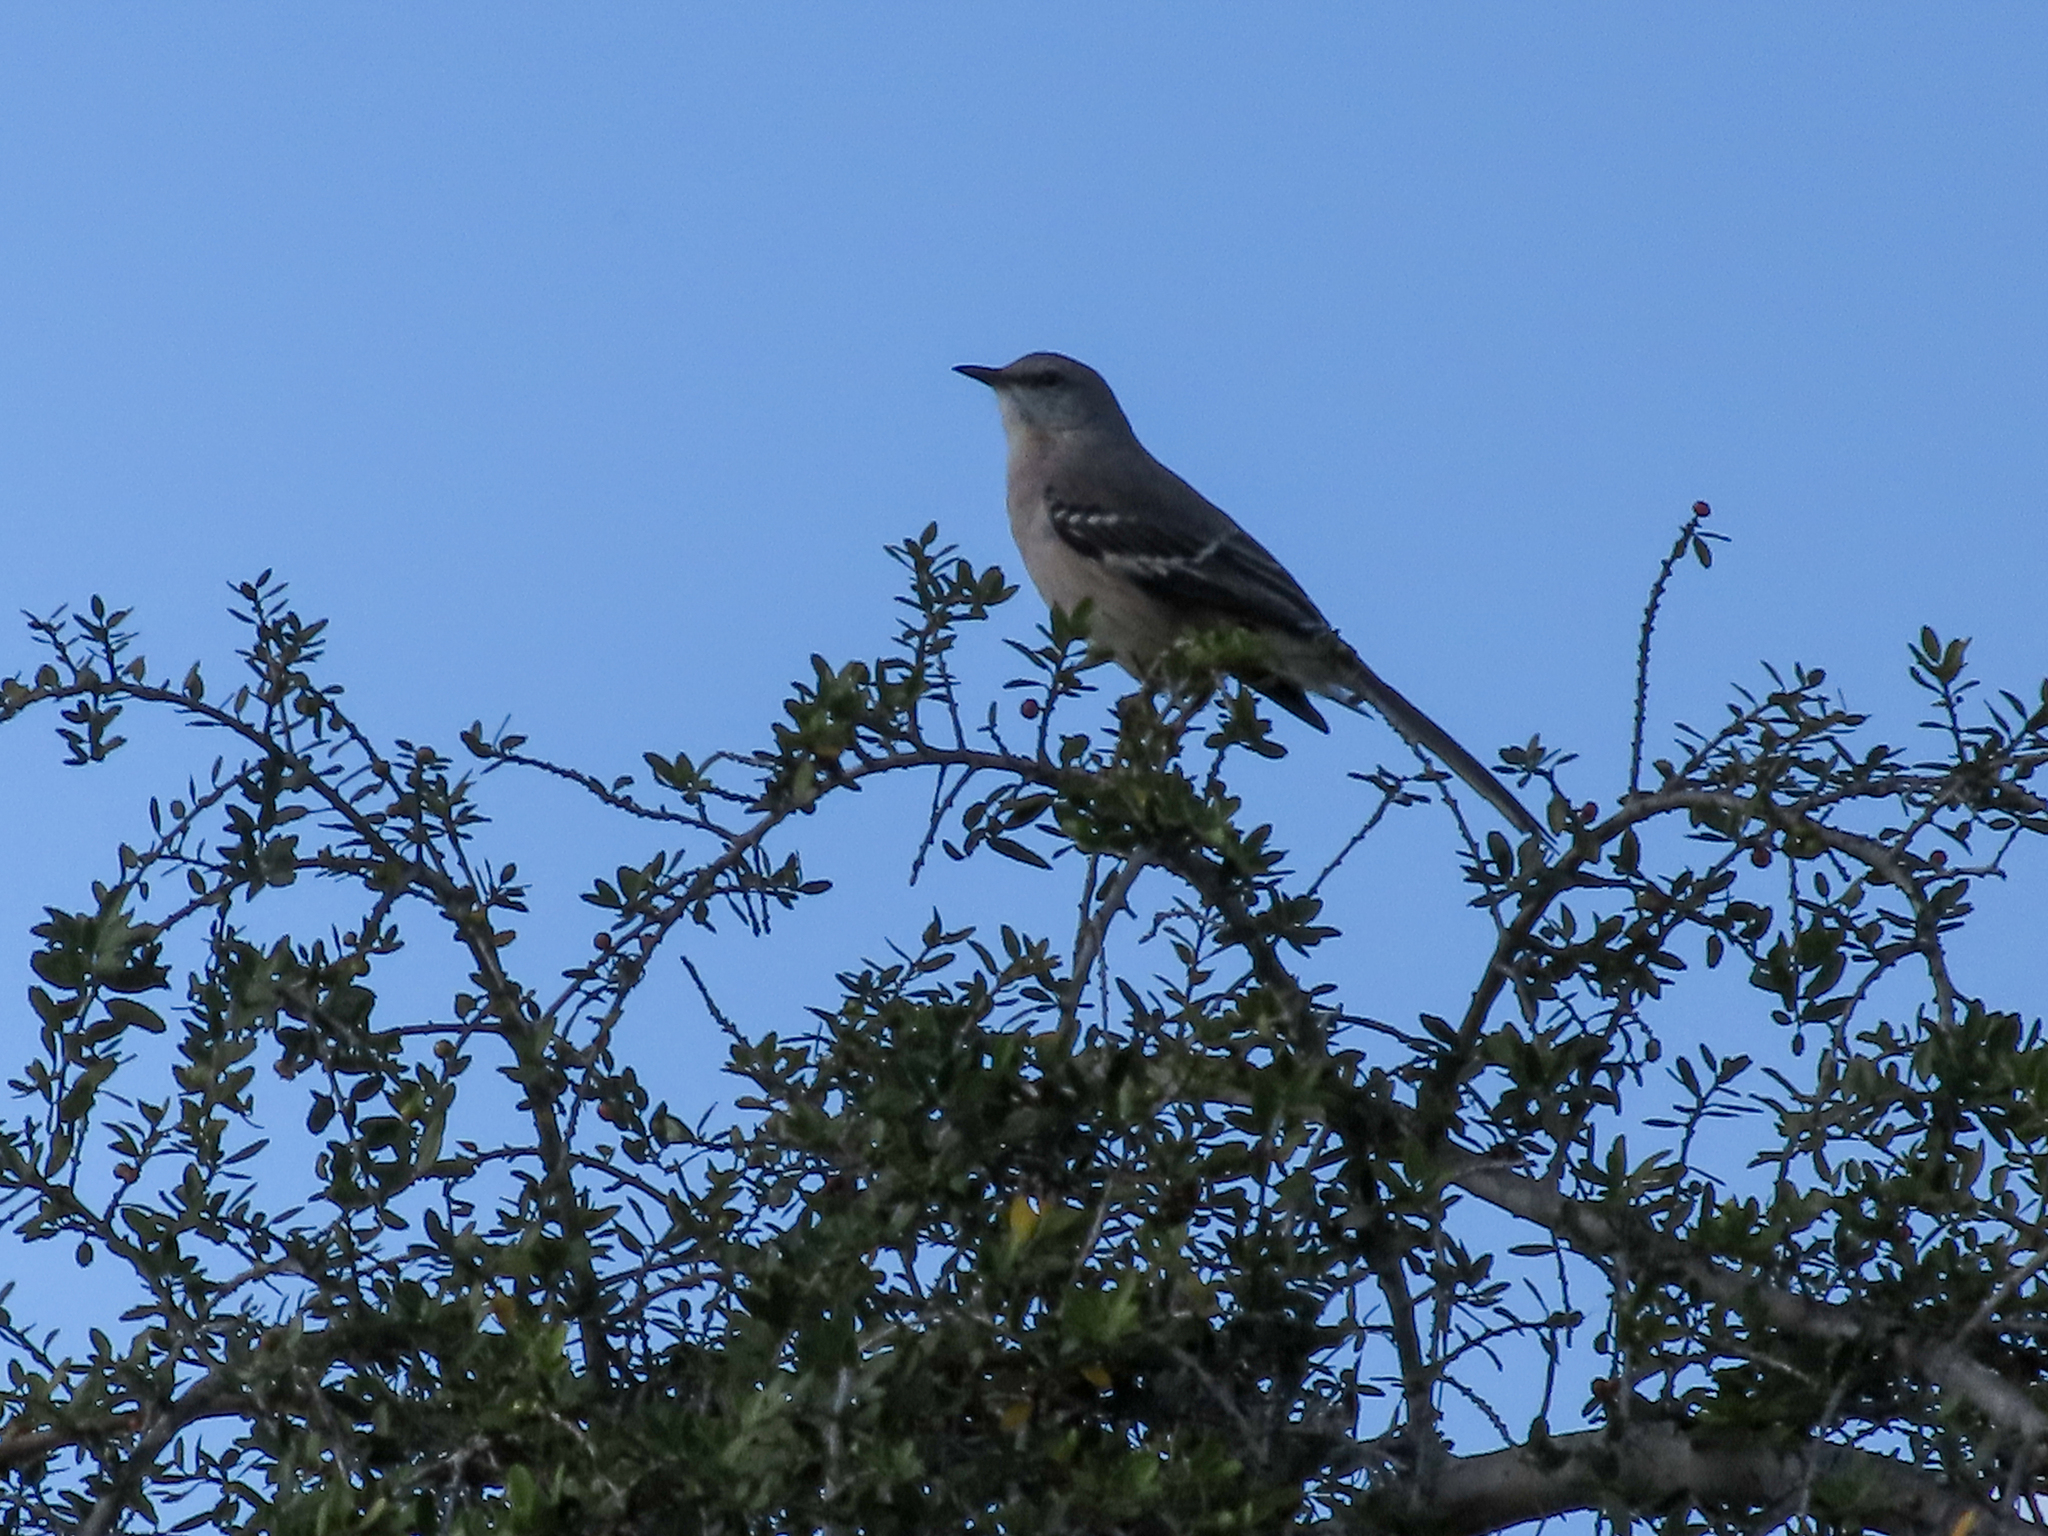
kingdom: Animalia
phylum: Chordata
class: Aves
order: Passeriformes
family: Mimidae
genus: Mimus
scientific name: Mimus polyglottos
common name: Northern mockingbird
